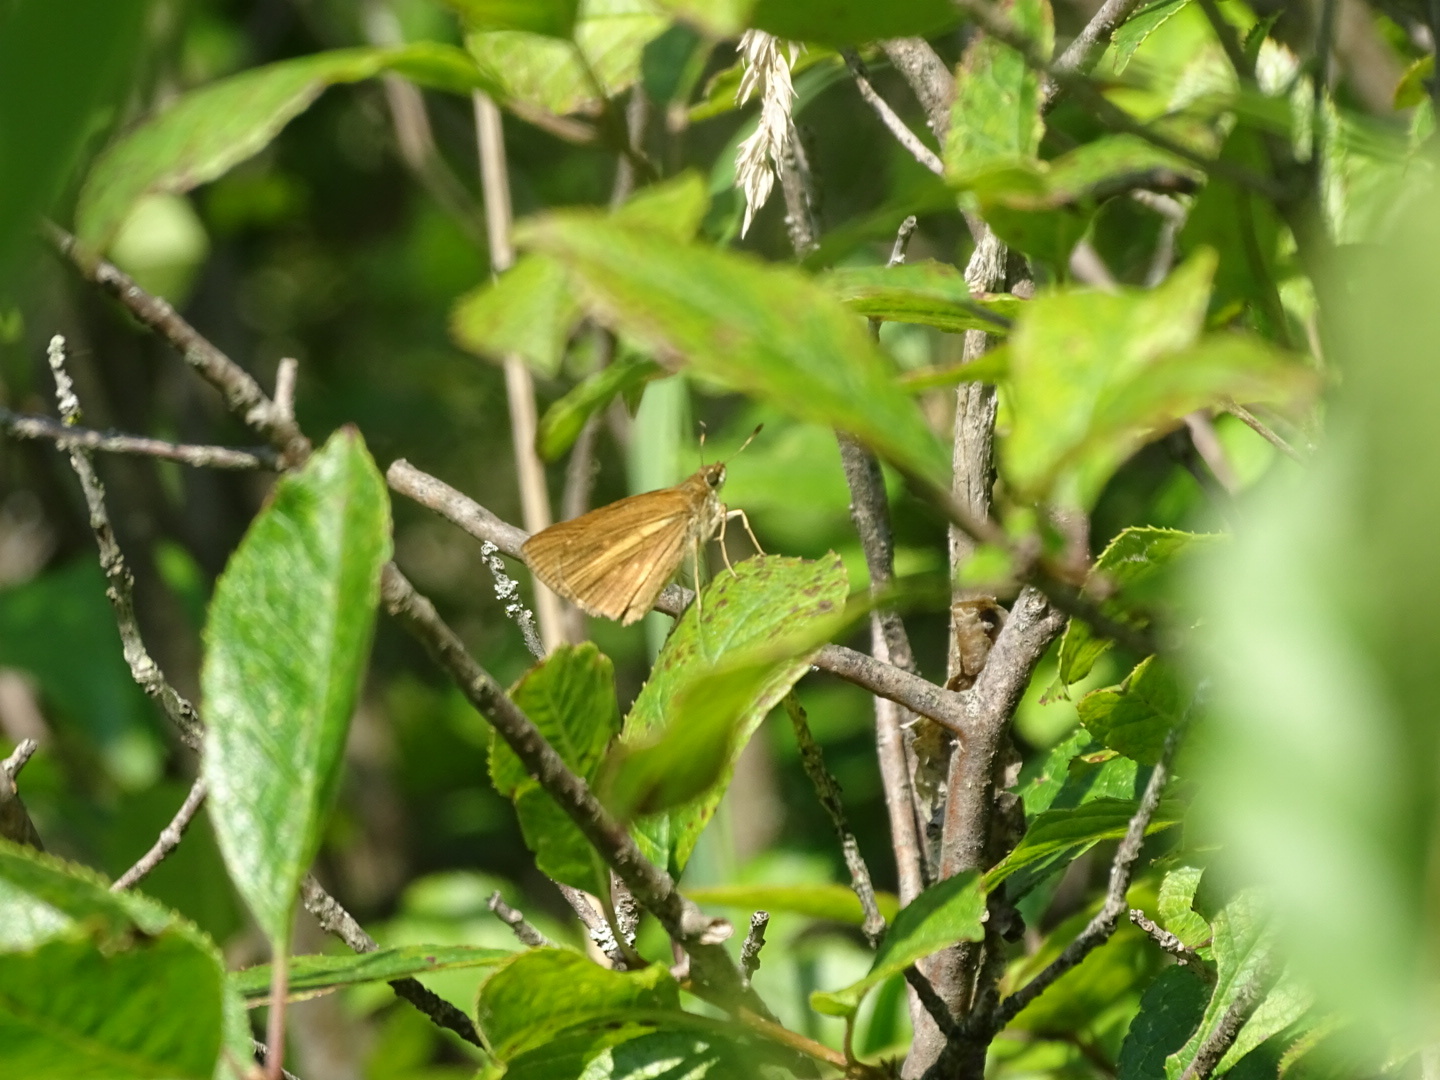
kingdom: Animalia
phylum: Arthropoda
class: Insecta
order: Lepidoptera
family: Hesperiidae
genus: Poanes
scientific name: Poanes viator
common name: Broad-winged skipper
